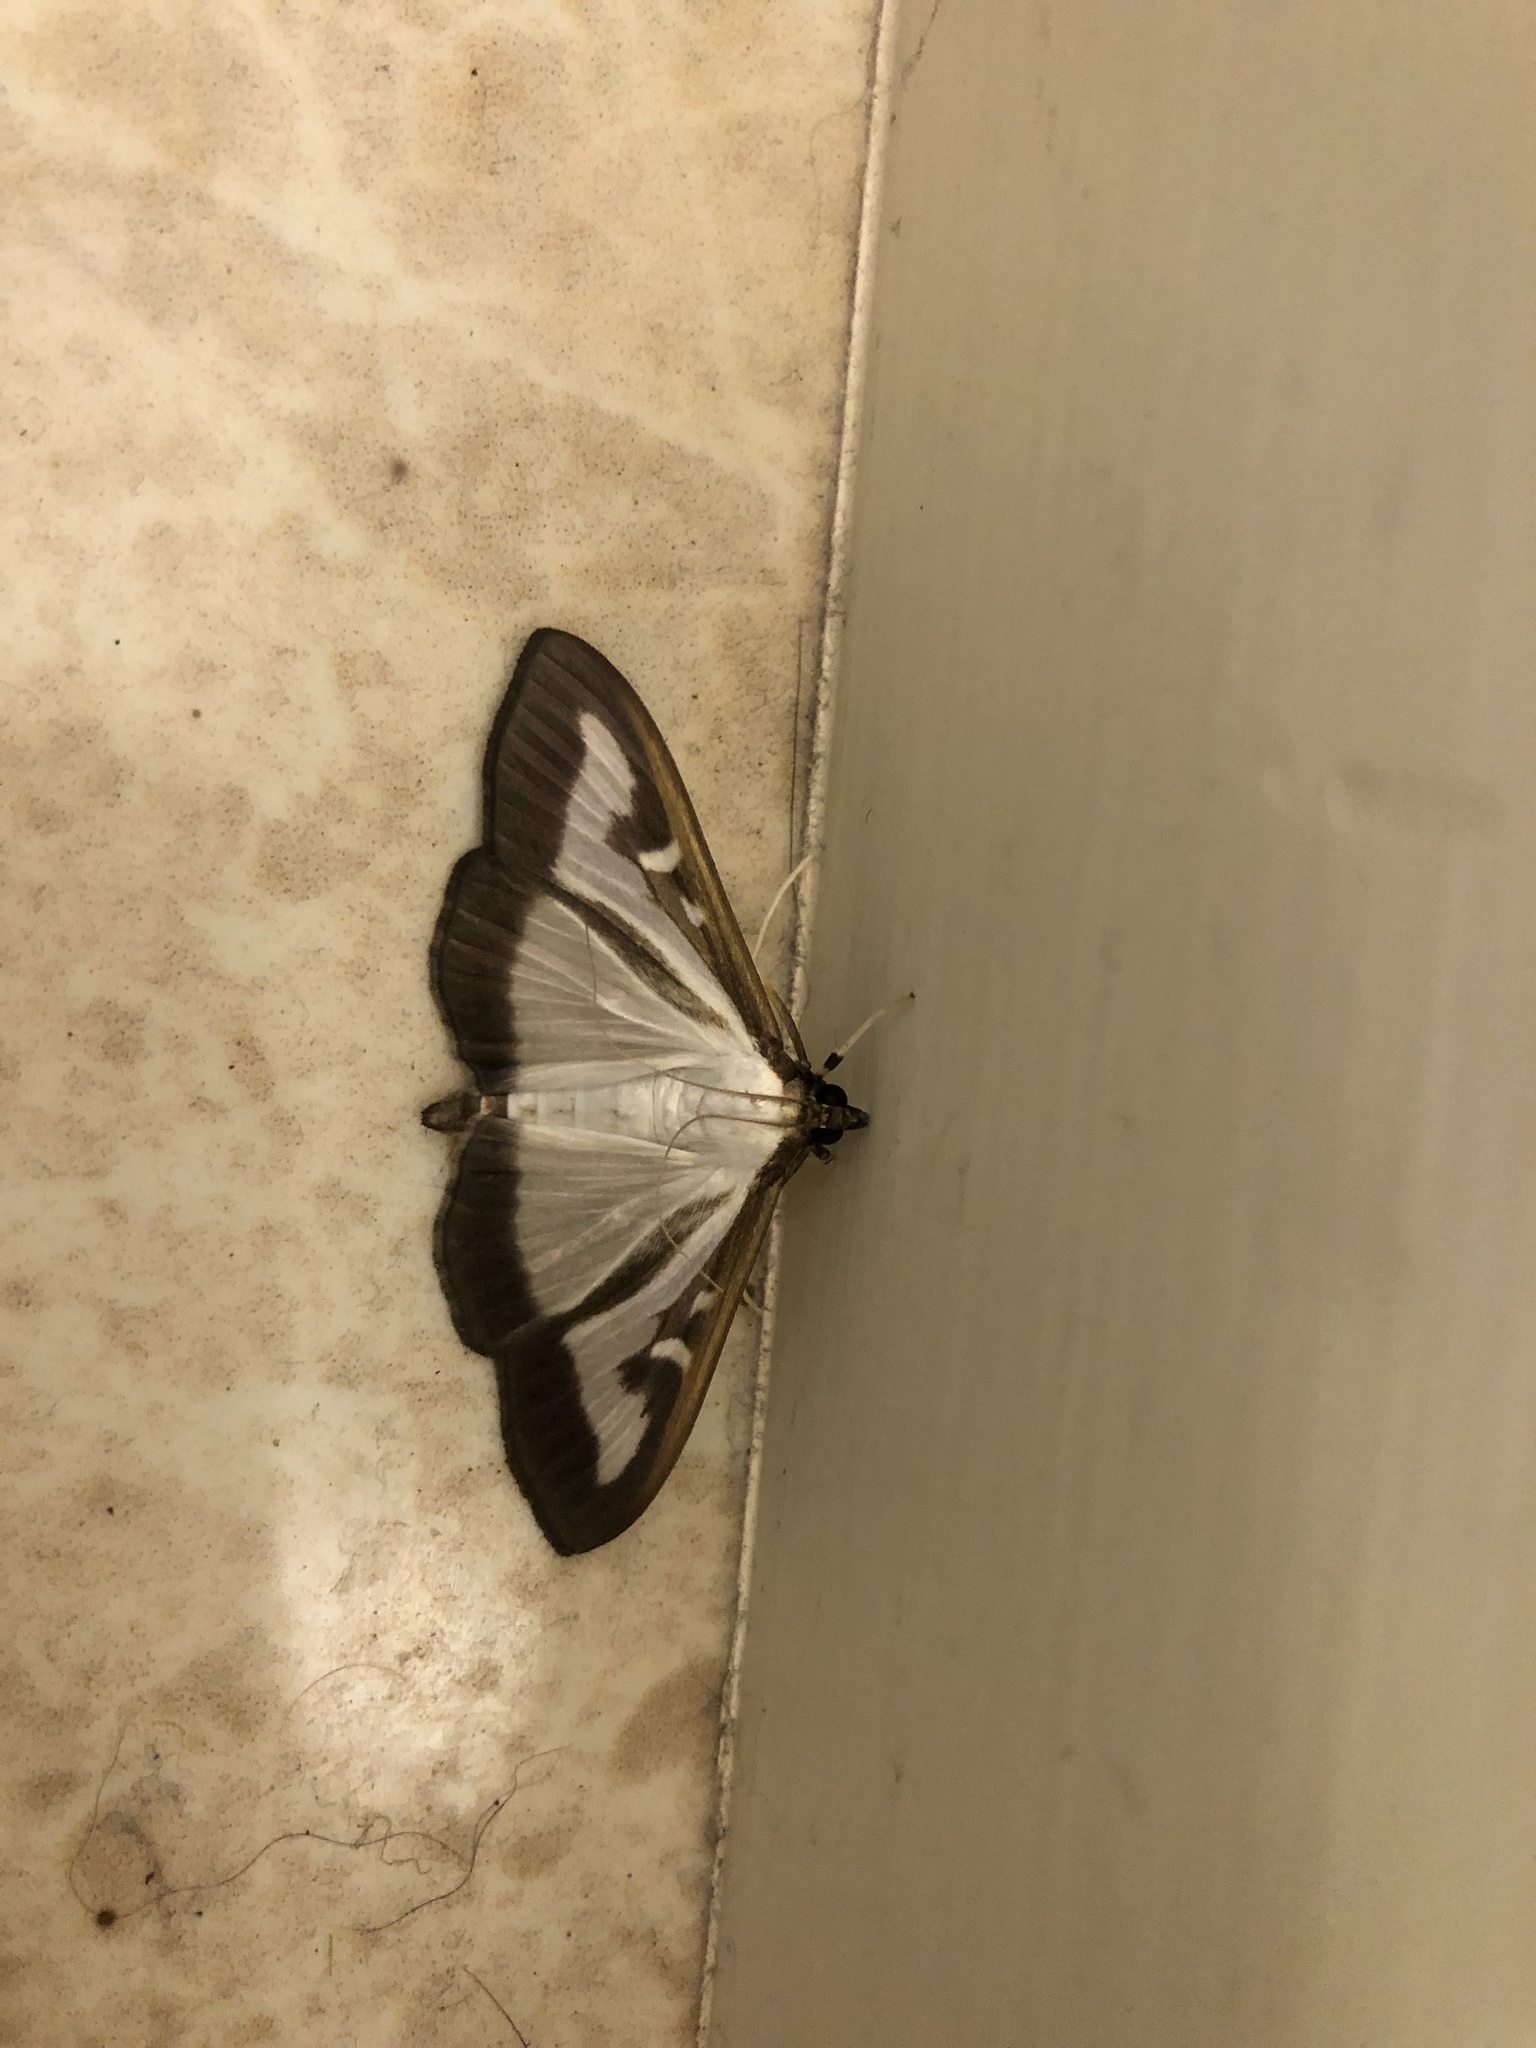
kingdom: Animalia
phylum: Arthropoda
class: Insecta
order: Lepidoptera
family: Crambidae
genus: Cydalima
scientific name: Cydalima perspectalis
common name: Box tree moth
